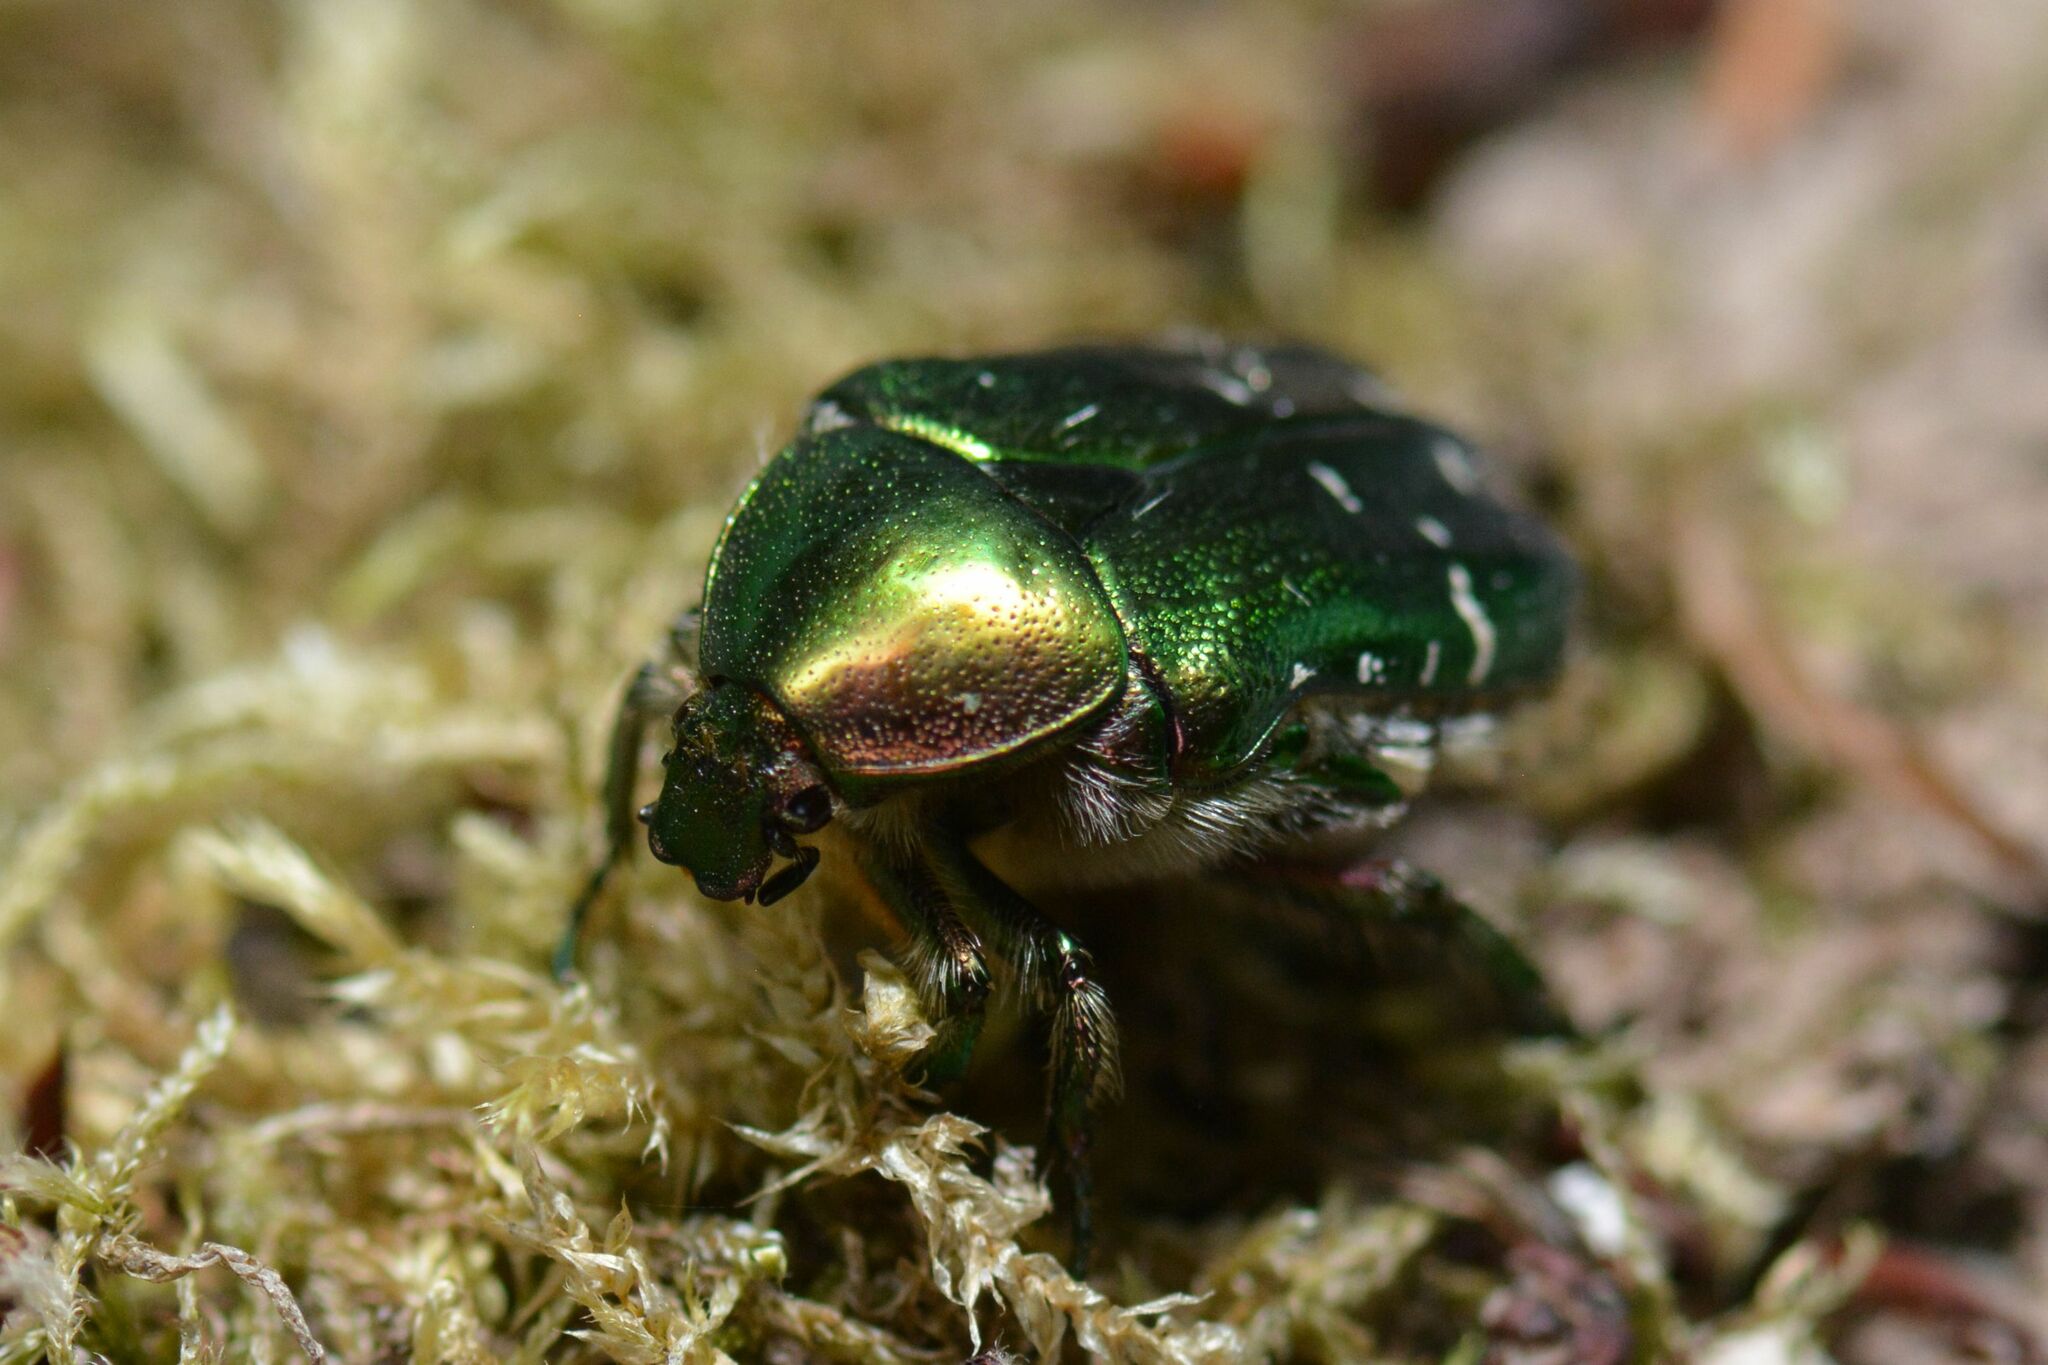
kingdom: Animalia
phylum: Arthropoda
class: Insecta
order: Coleoptera
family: Scarabaeidae
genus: Cetonia
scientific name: Cetonia aurata
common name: Rose chafer
